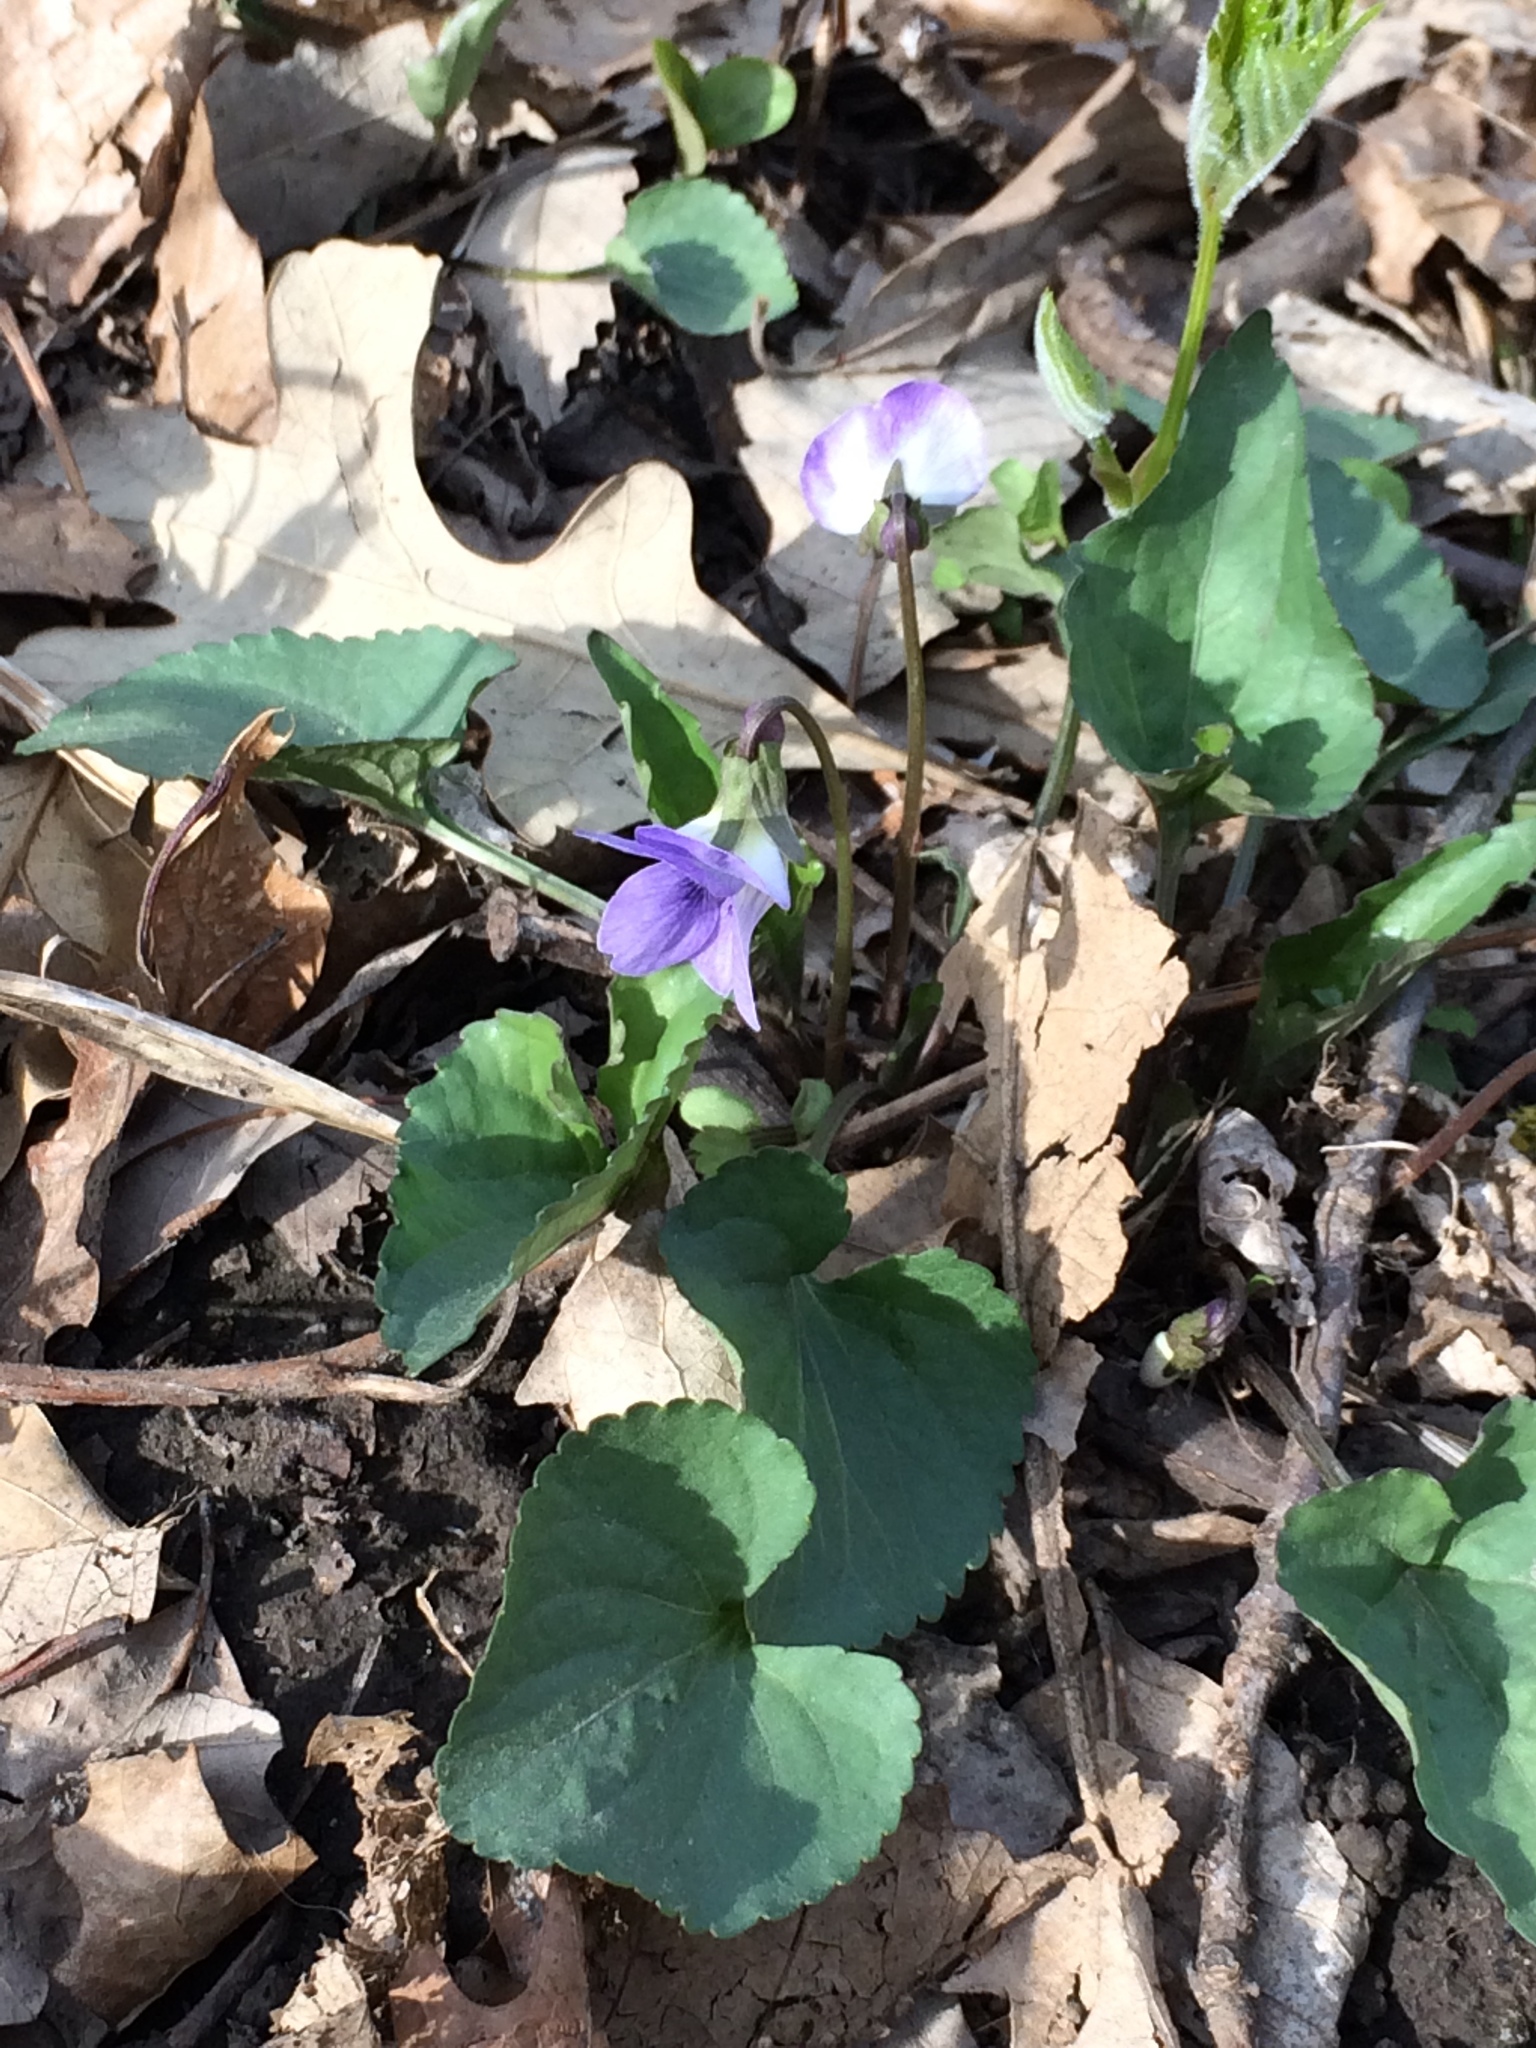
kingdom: Plantae
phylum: Tracheophyta
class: Magnoliopsida
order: Malpighiales
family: Violaceae
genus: Viola
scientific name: Viola sororia
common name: Dooryard violet
